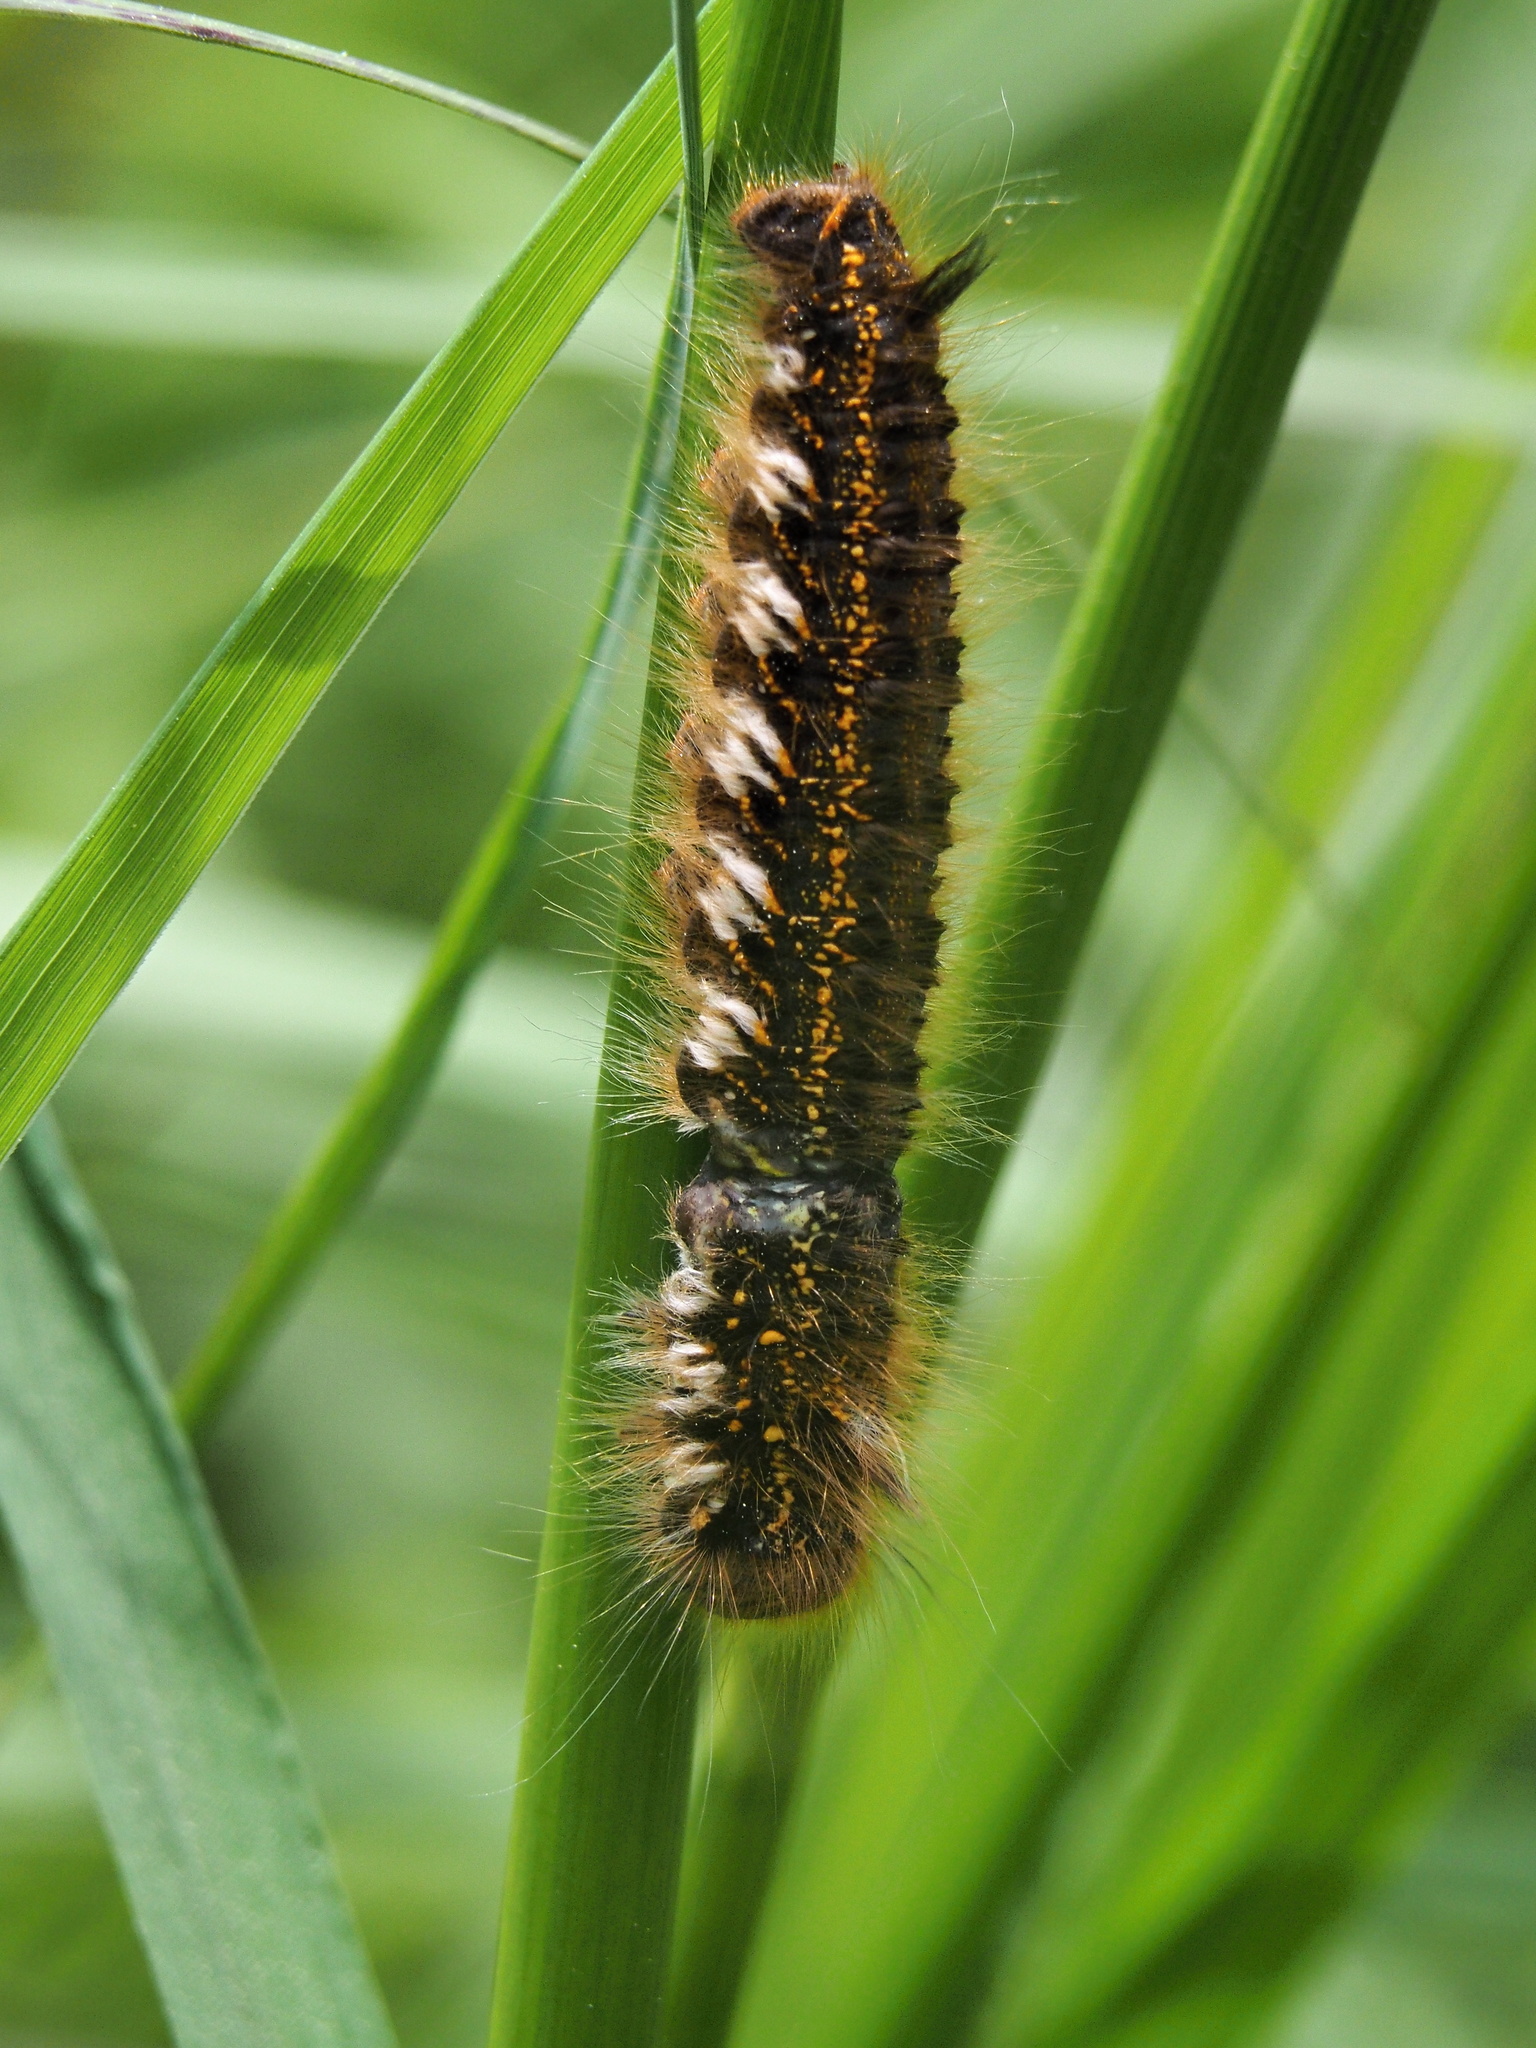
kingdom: Animalia
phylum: Arthropoda
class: Insecta
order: Lepidoptera
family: Lasiocampidae
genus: Euthrix
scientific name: Euthrix potatoria
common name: Drinker
